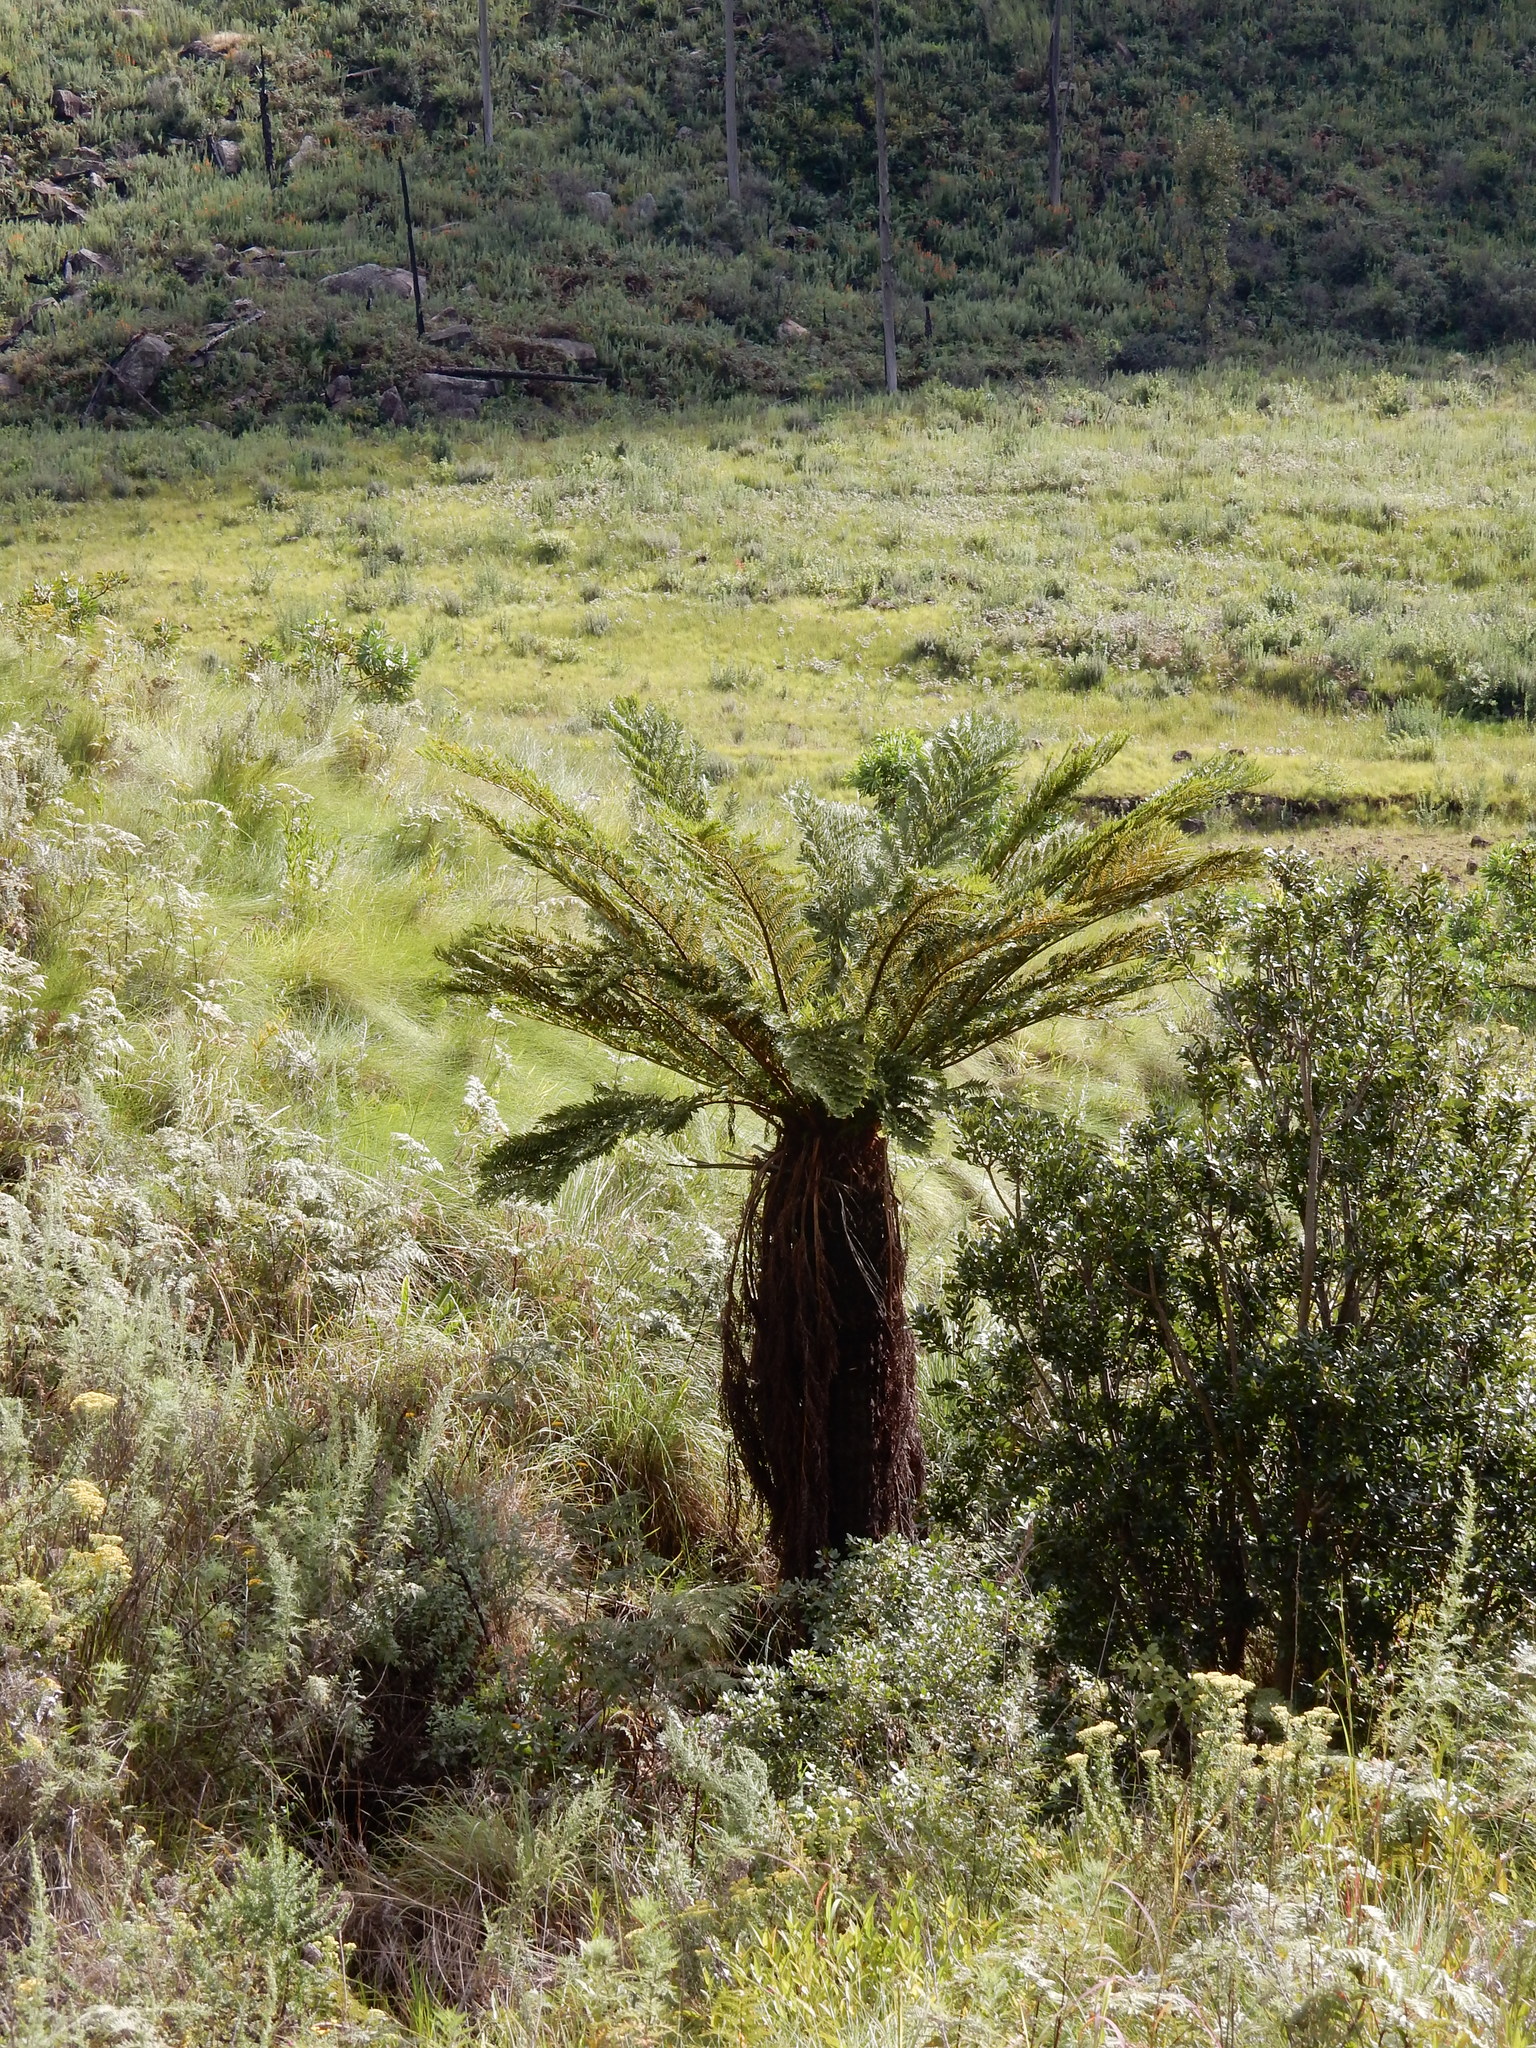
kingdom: Plantae
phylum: Tracheophyta
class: Polypodiopsida
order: Cyatheales
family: Cyatheaceae
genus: Alsophila
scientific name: Alsophila dregei
